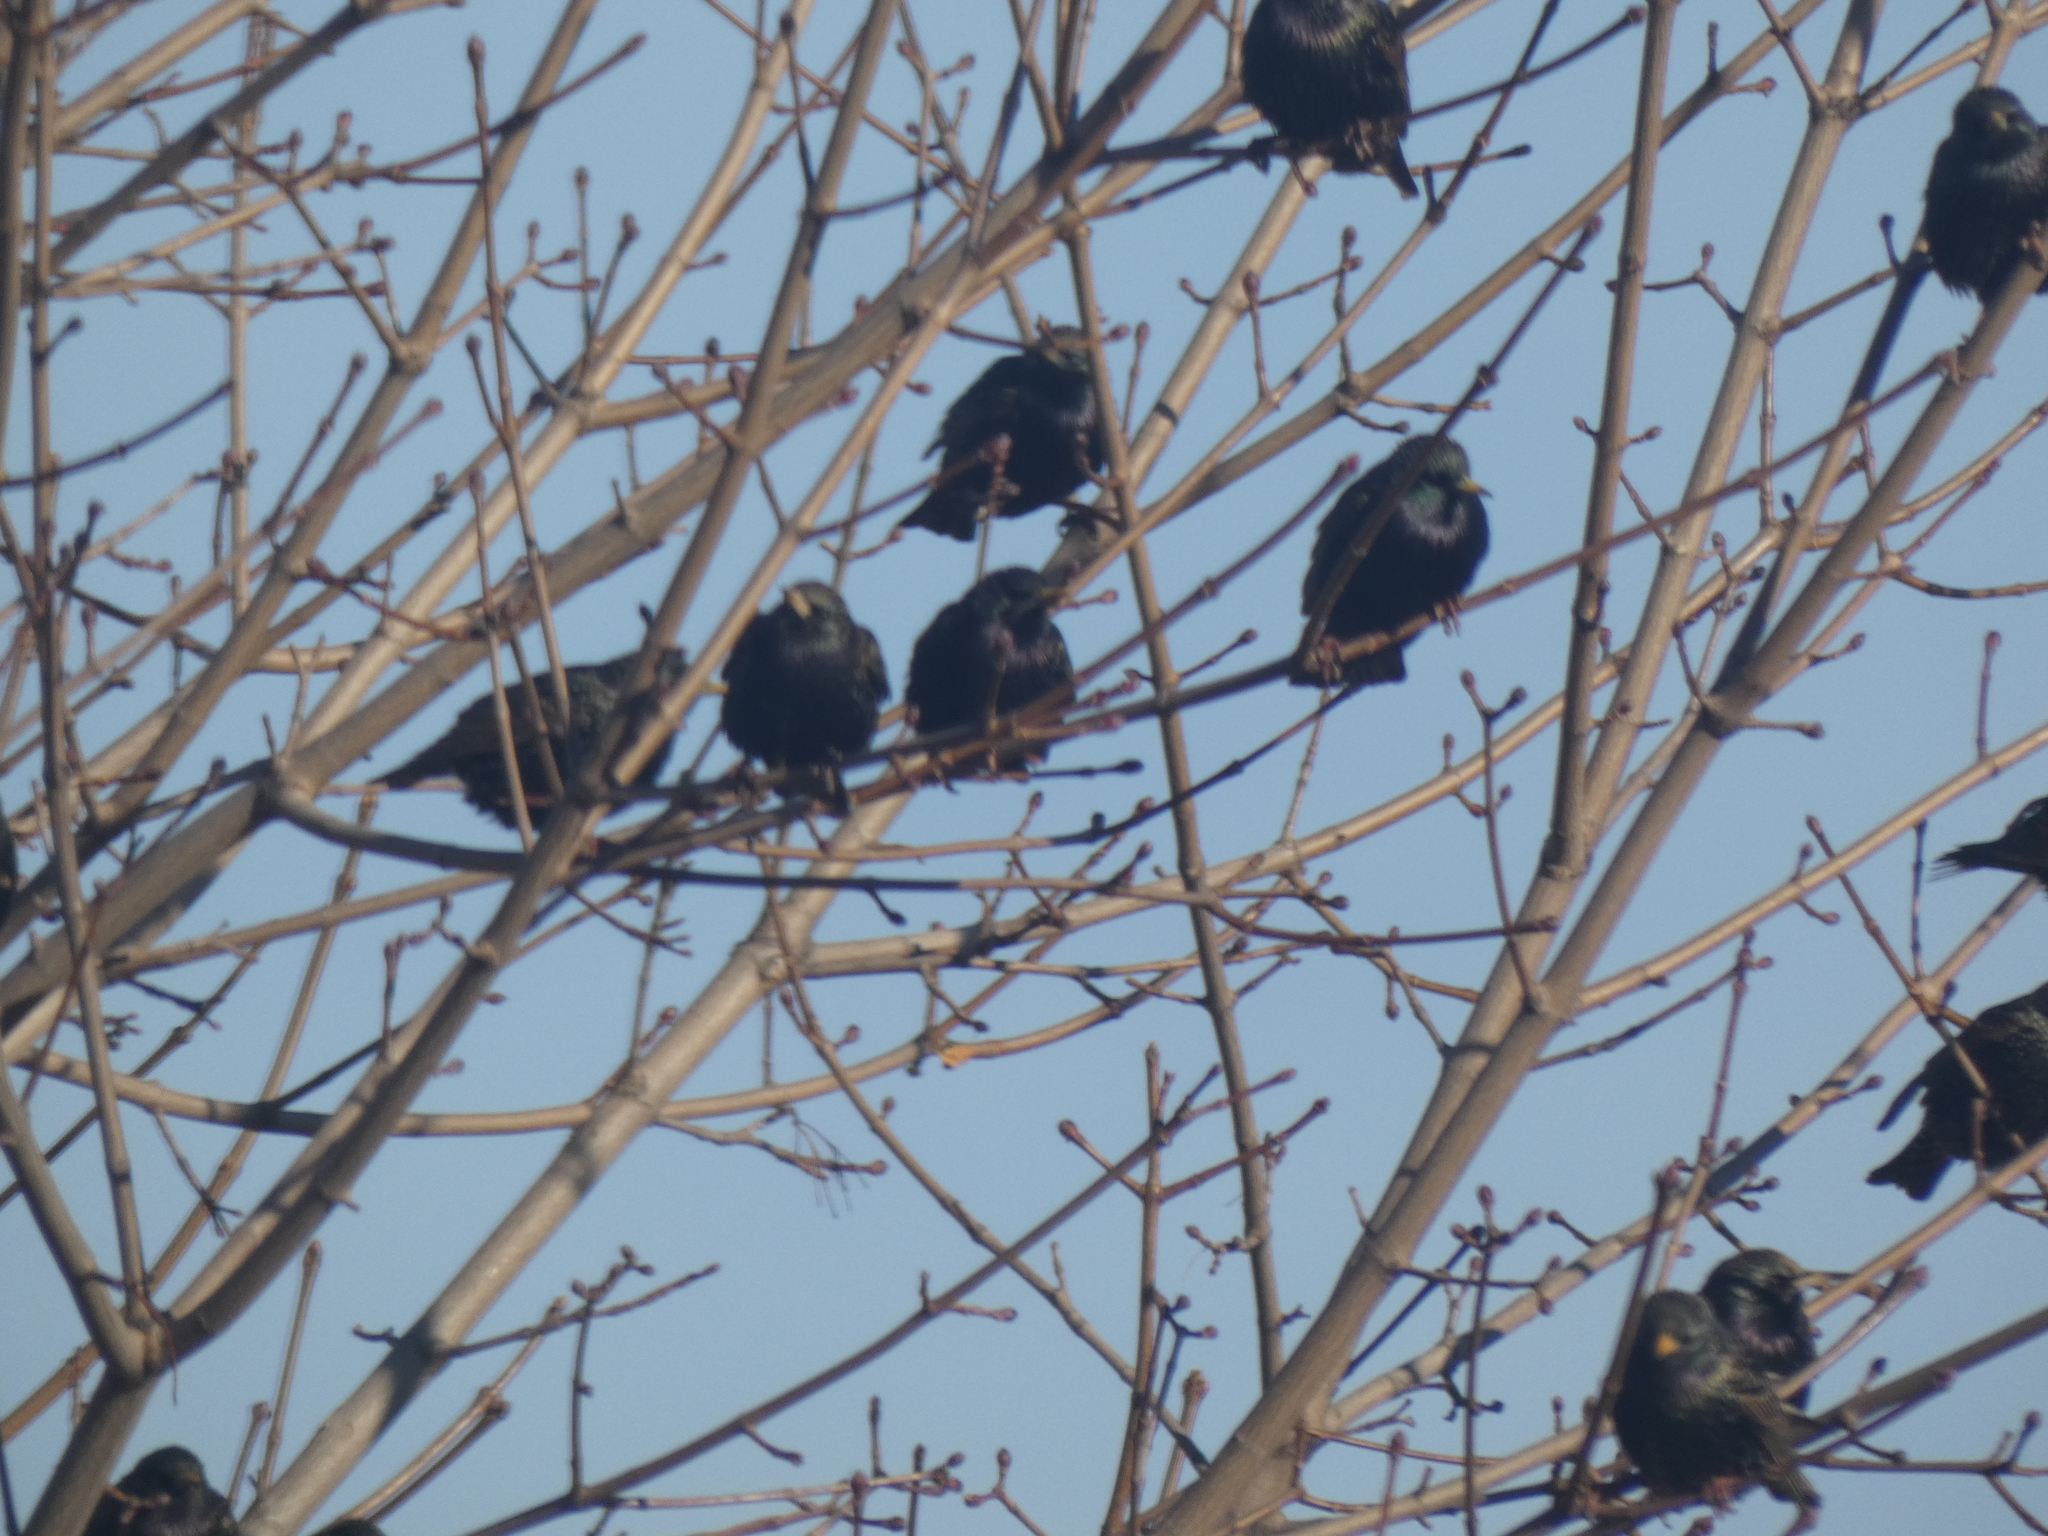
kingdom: Animalia
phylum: Chordata
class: Aves
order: Passeriformes
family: Sturnidae
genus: Sturnus
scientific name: Sturnus vulgaris
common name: Common starling
